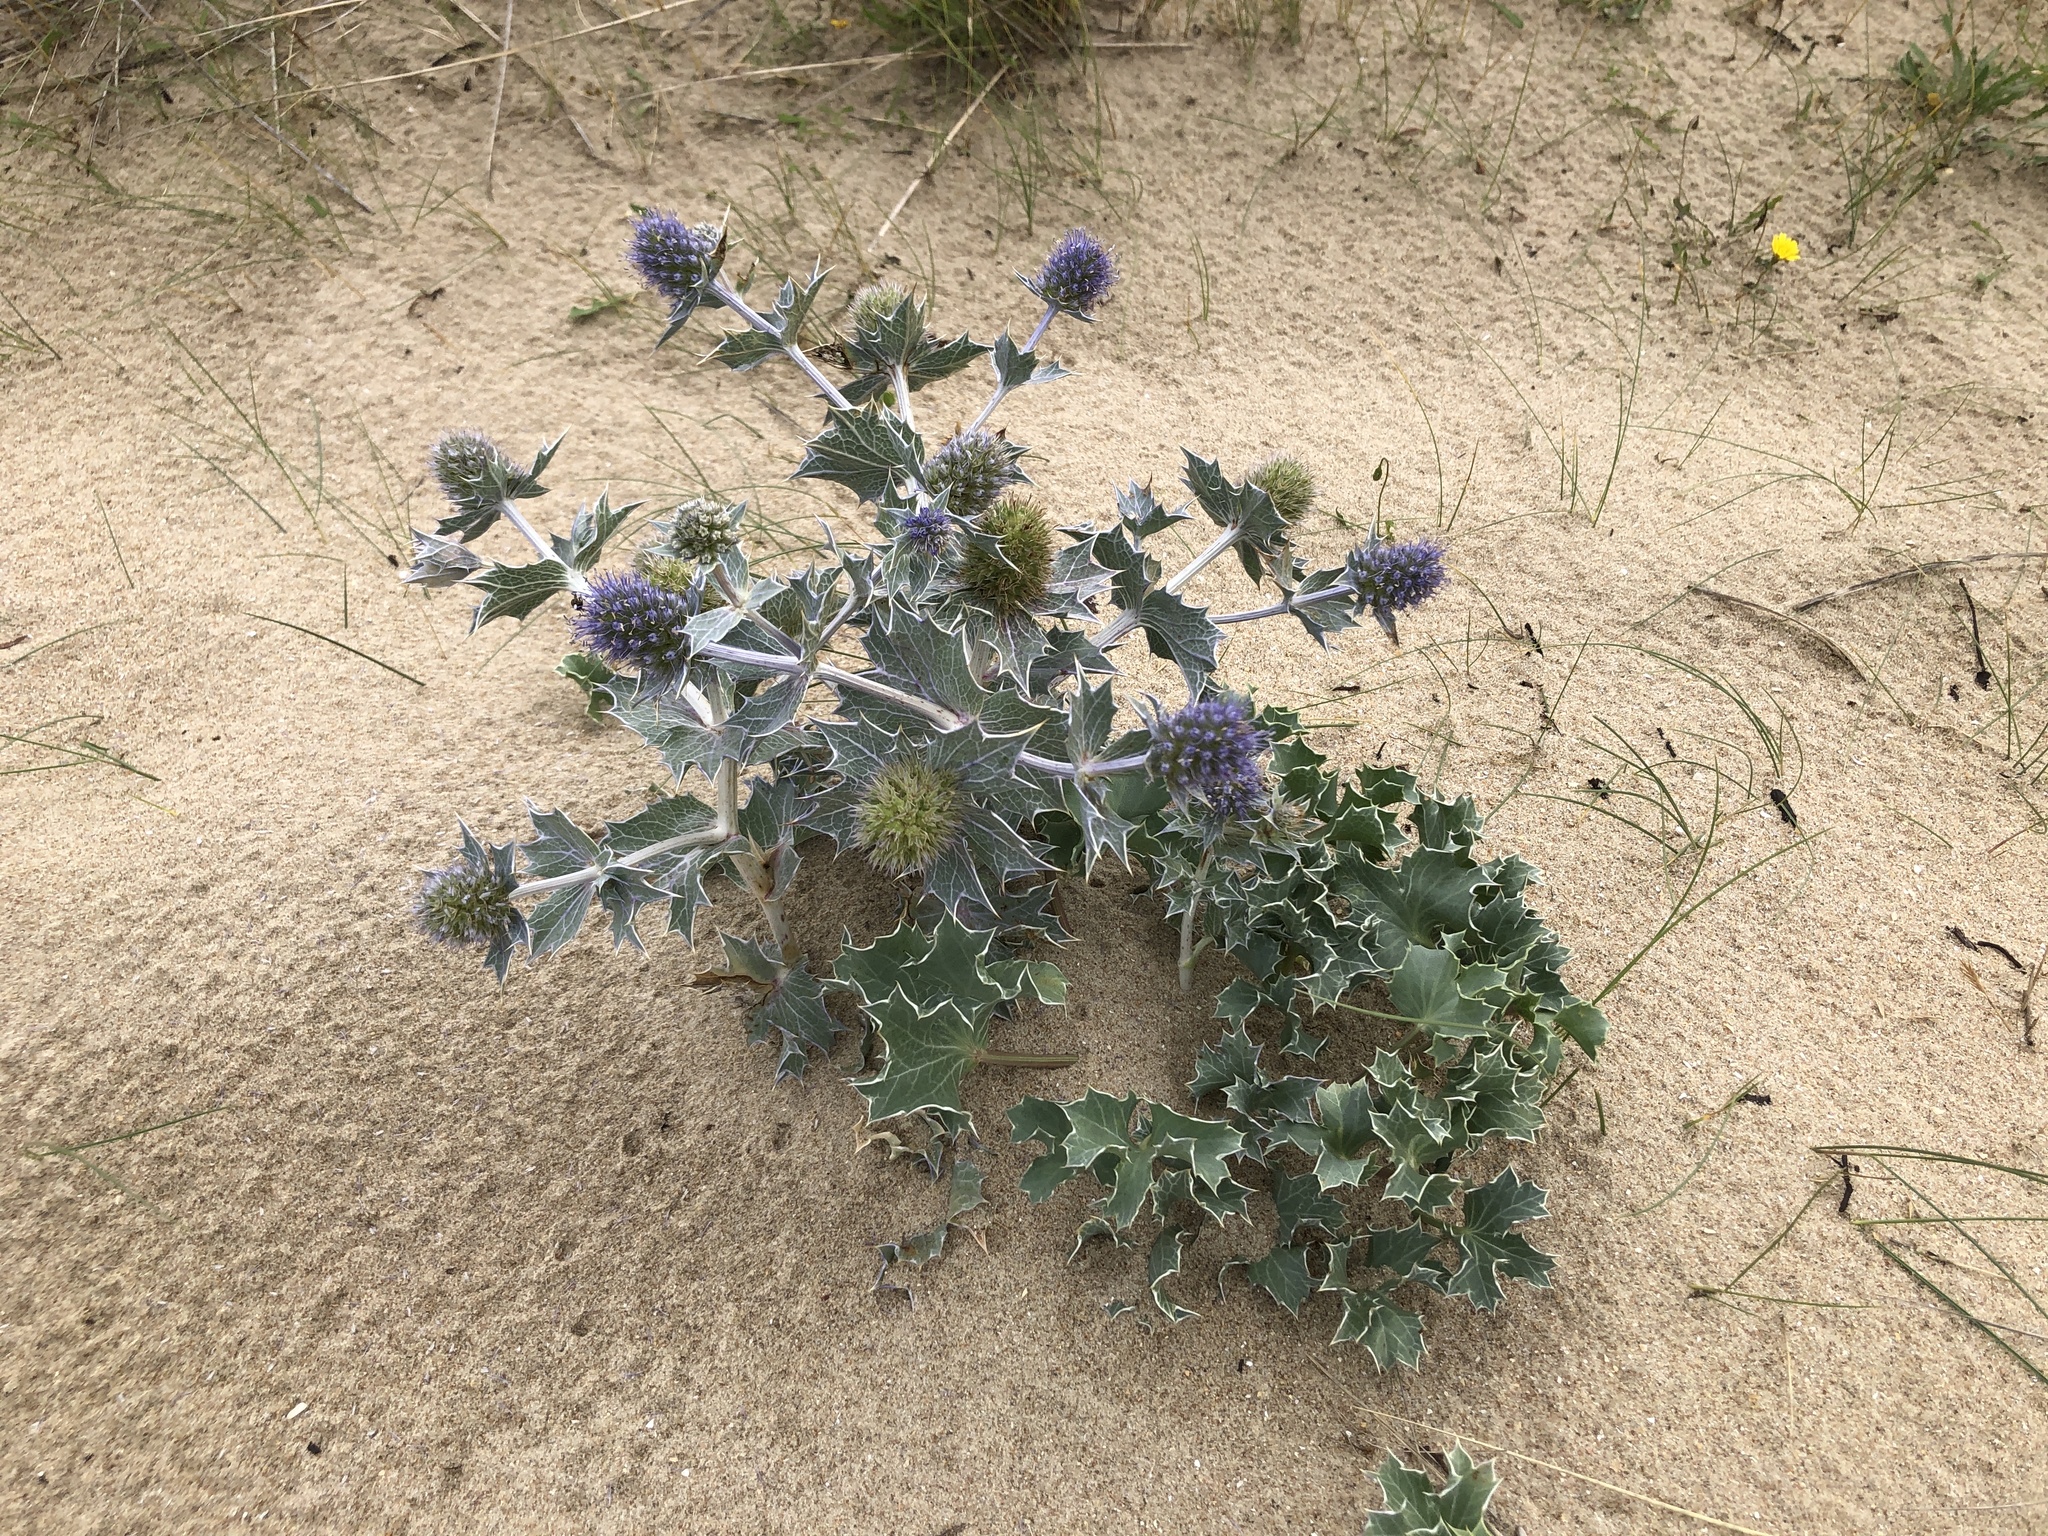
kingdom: Plantae
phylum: Tracheophyta
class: Magnoliopsida
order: Apiales
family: Apiaceae
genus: Eryngium
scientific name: Eryngium maritimum
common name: Sea-holly
